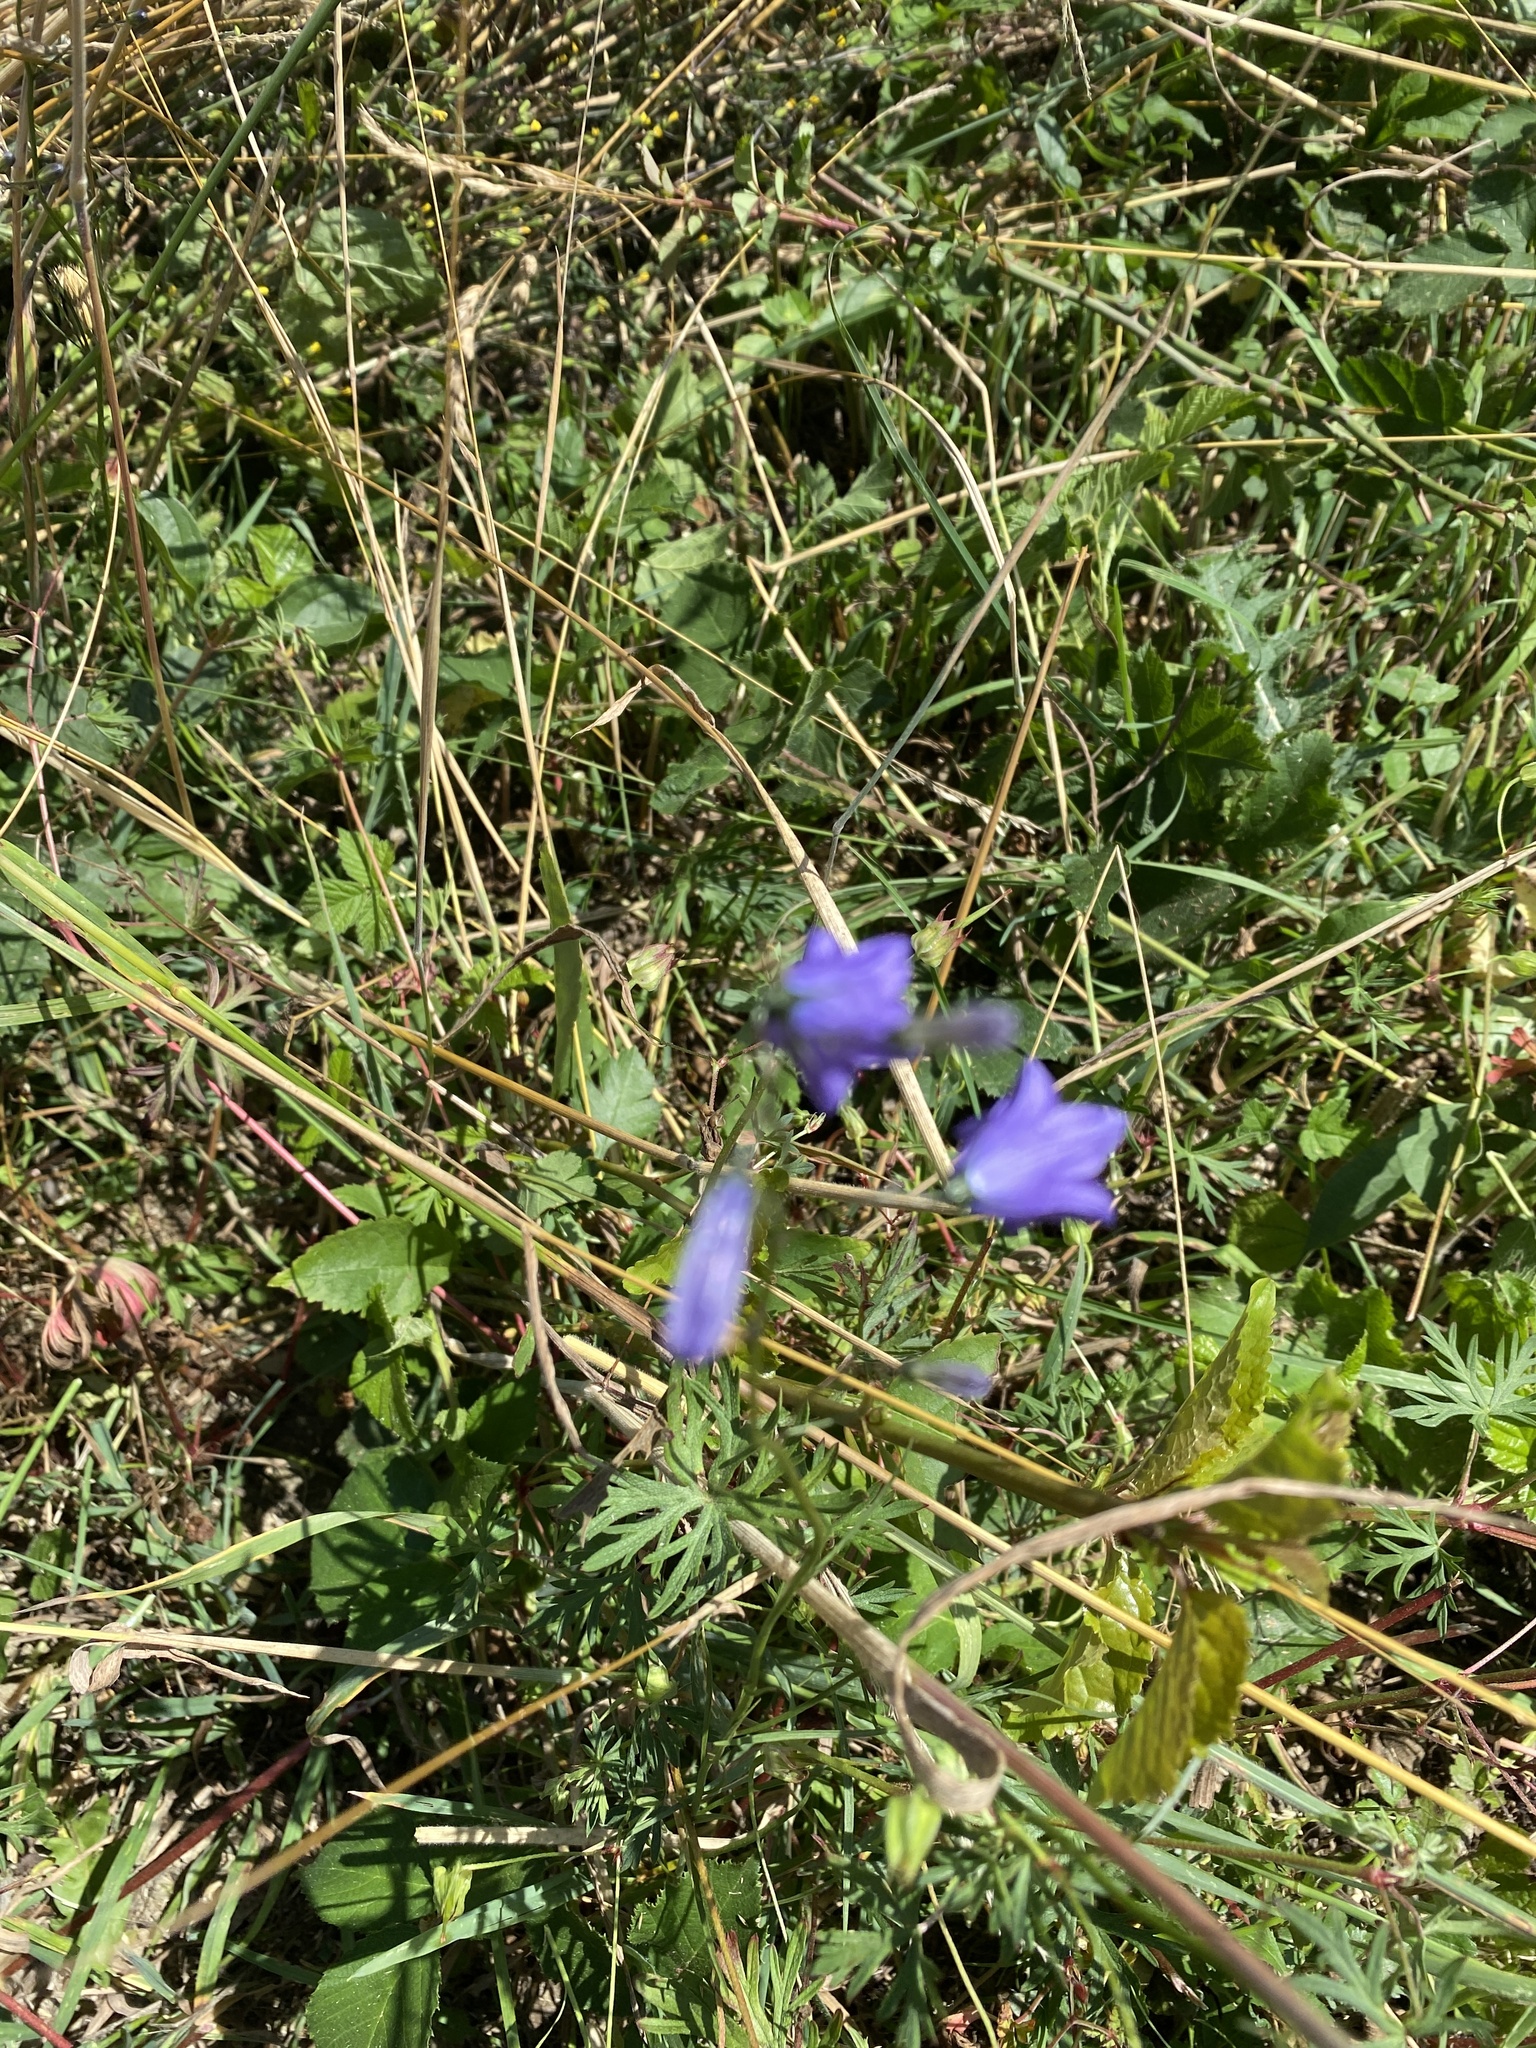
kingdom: Plantae
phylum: Tracheophyta
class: Magnoliopsida
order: Asterales
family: Campanulaceae
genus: Campanula
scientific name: Campanula rotundifolia
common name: Harebell
